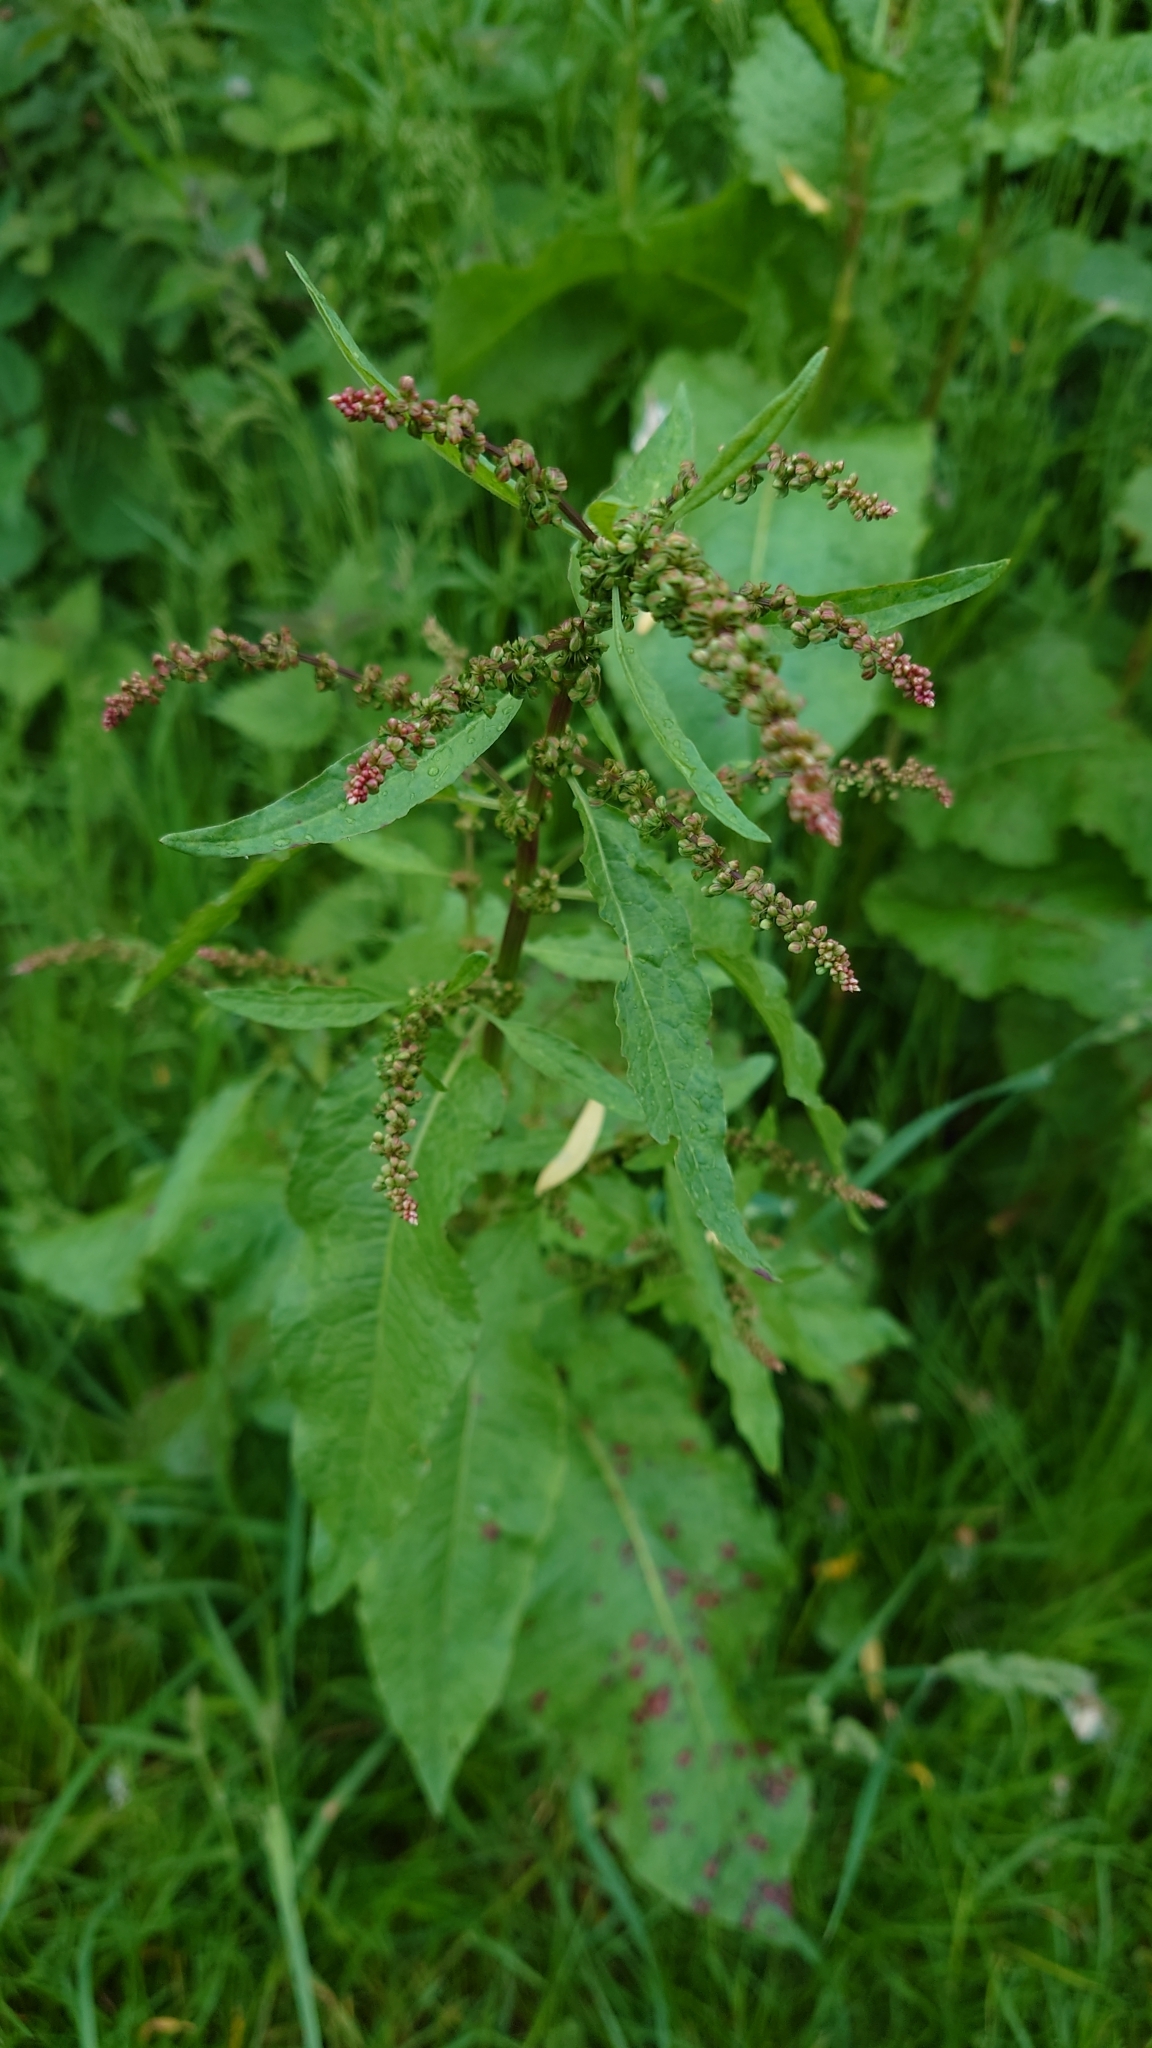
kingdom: Plantae
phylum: Tracheophyta
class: Magnoliopsida
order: Caryophyllales
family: Polygonaceae
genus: Rumex
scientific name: Rumex obtusifolius
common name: Bitter dock
